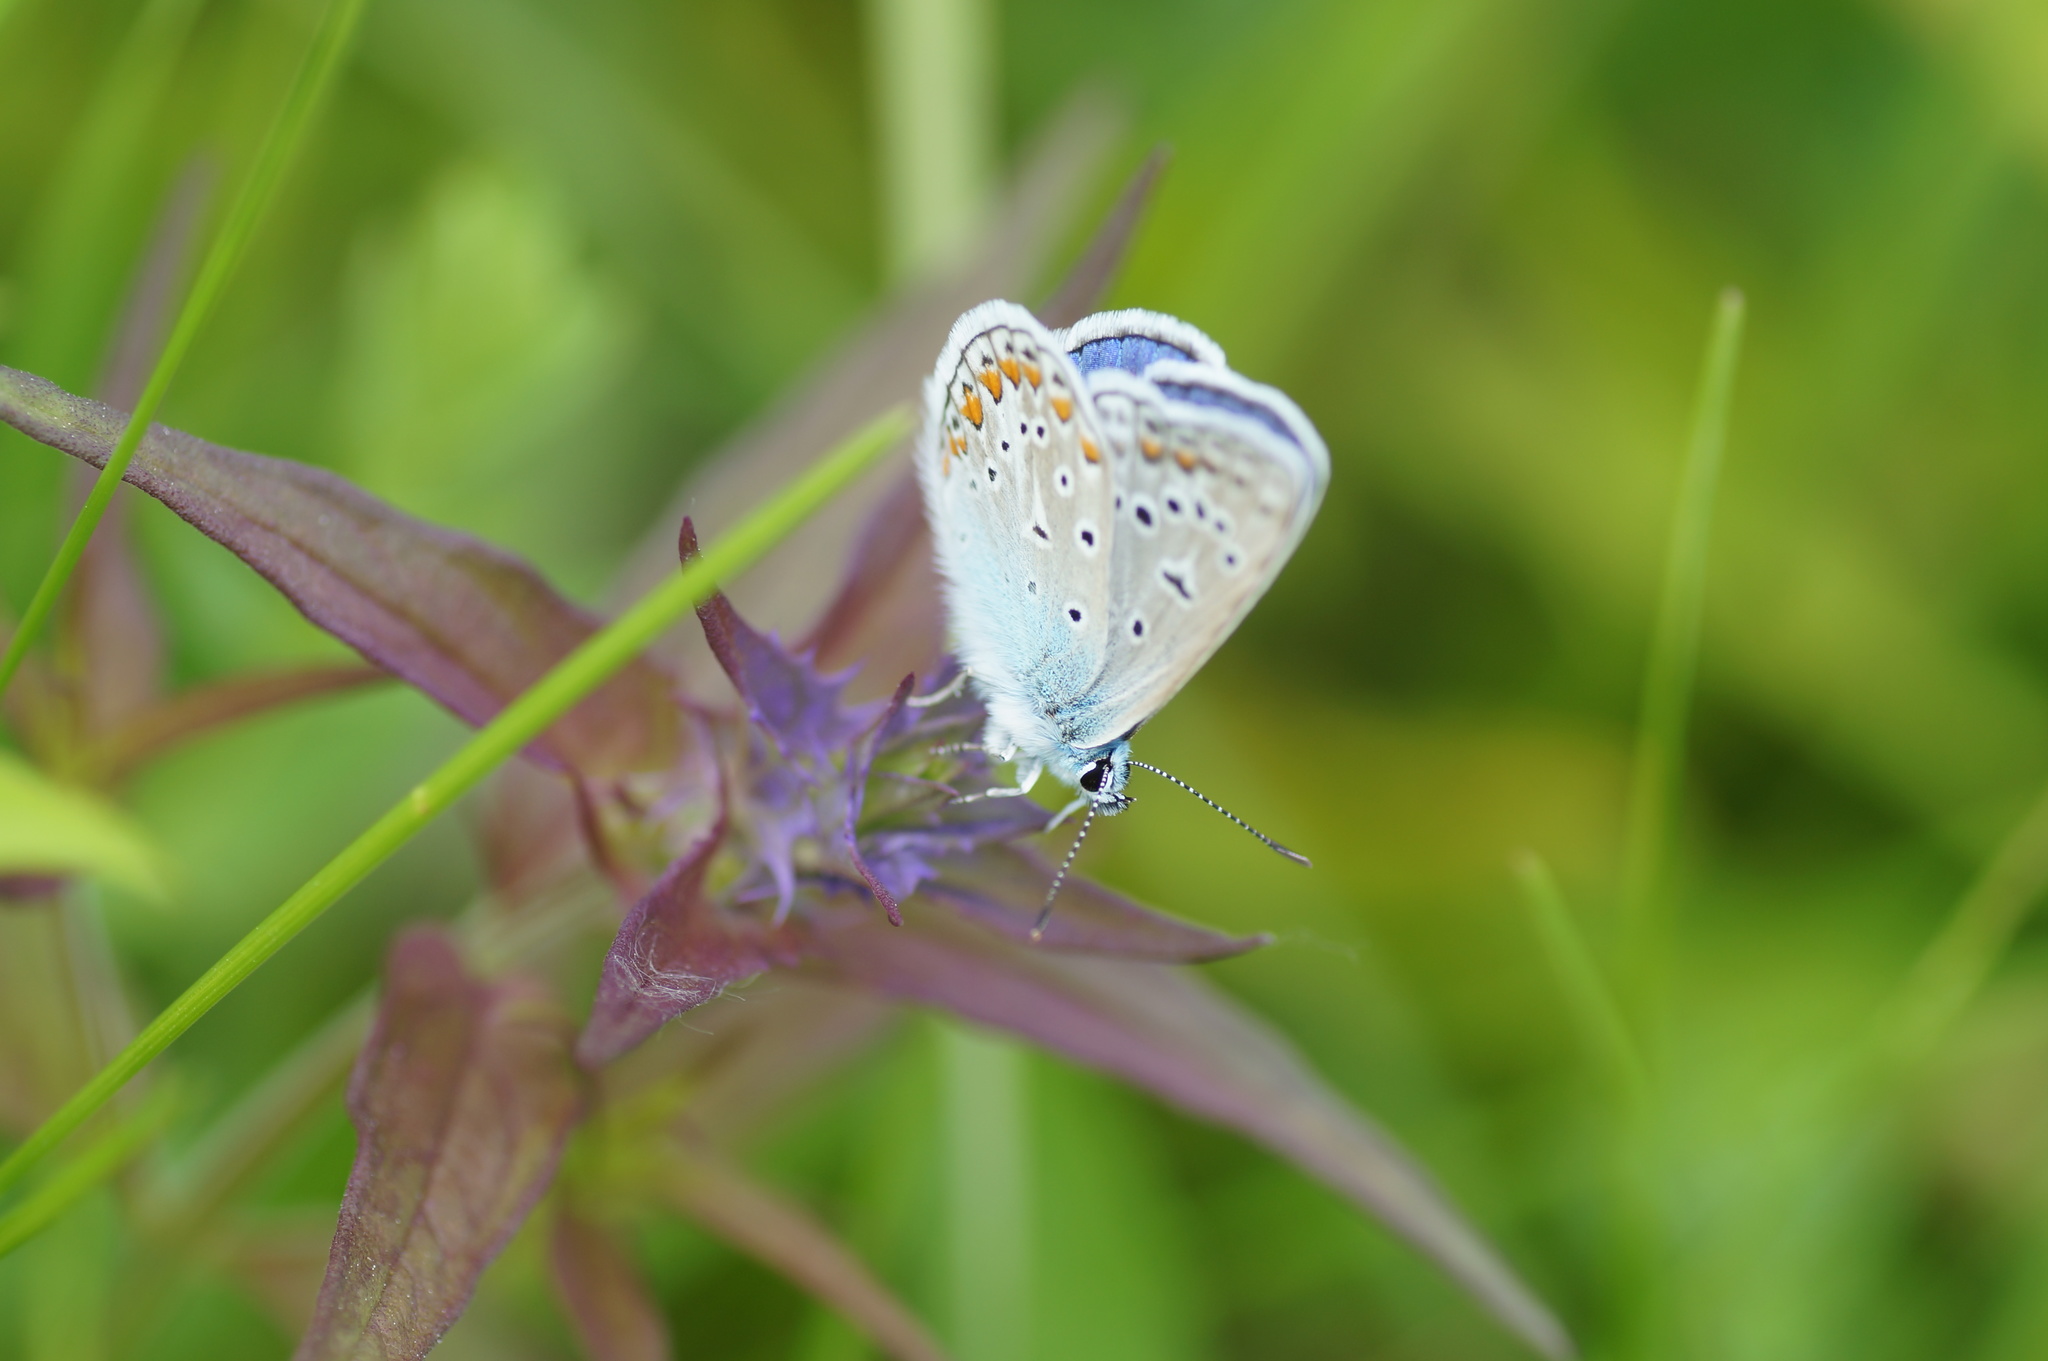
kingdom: Animalia
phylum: Arthropoda
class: Insecta
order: Lepidoptera
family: Lycaenidae
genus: Polyommatus
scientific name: Polyommatus icarus
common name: Common blue
